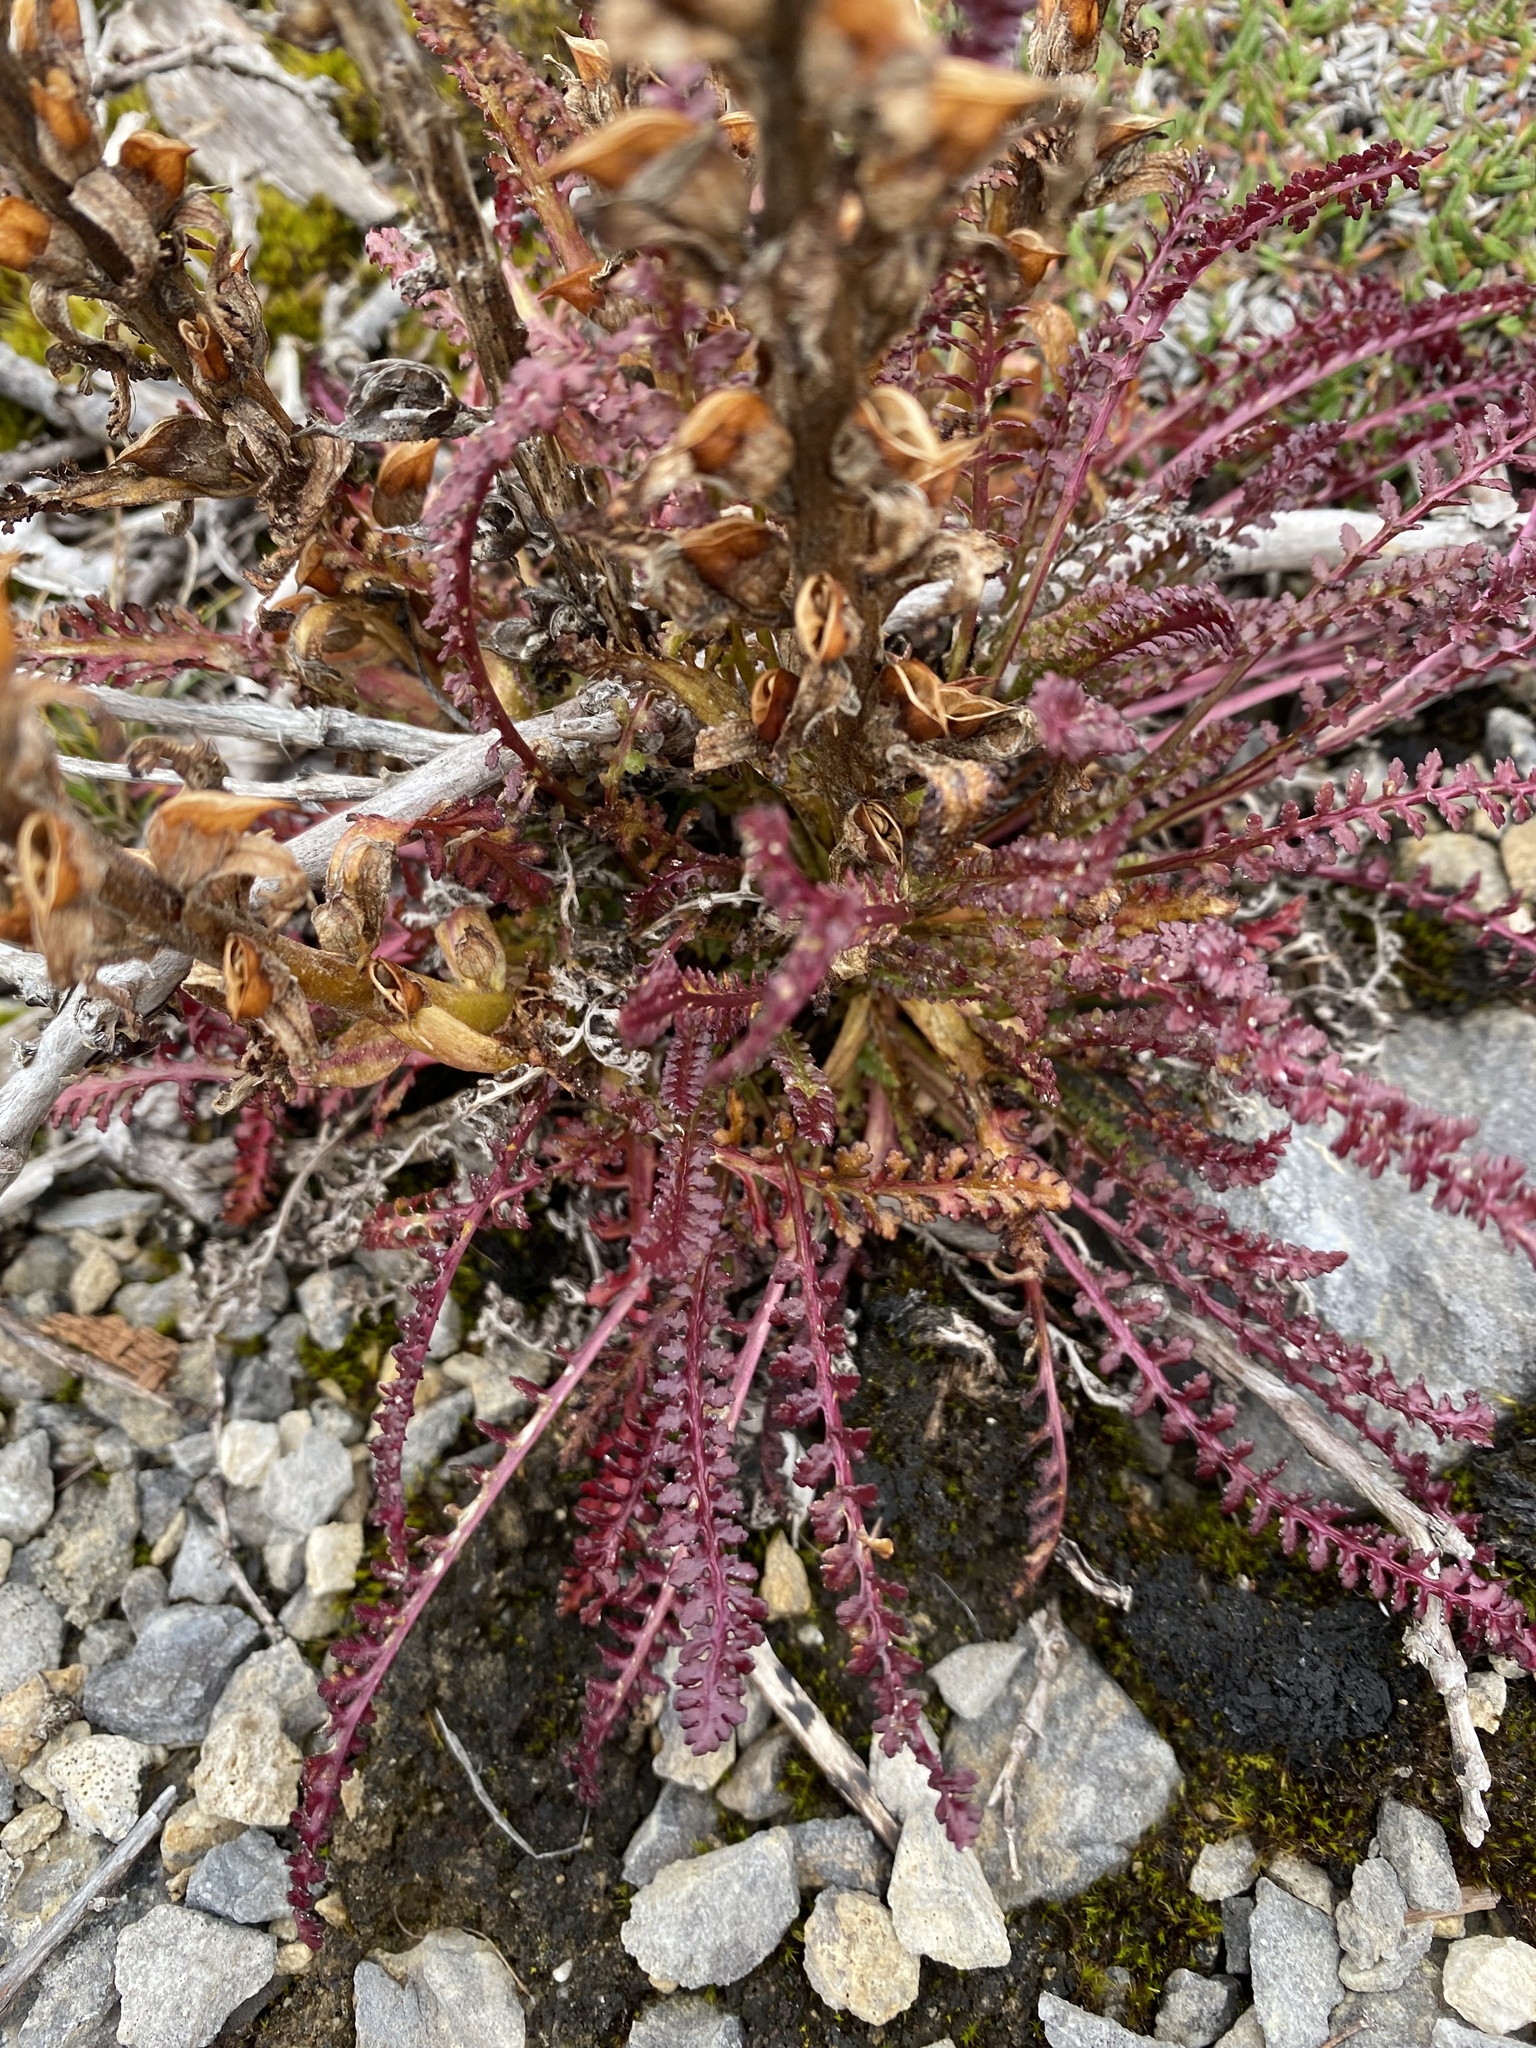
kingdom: Plantae
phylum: Tracheophyta
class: Magnoliopsida
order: Lamiales
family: Orobanchaceae
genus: Pedicularis
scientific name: Pedicularis lanata
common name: Woolly lousewort
